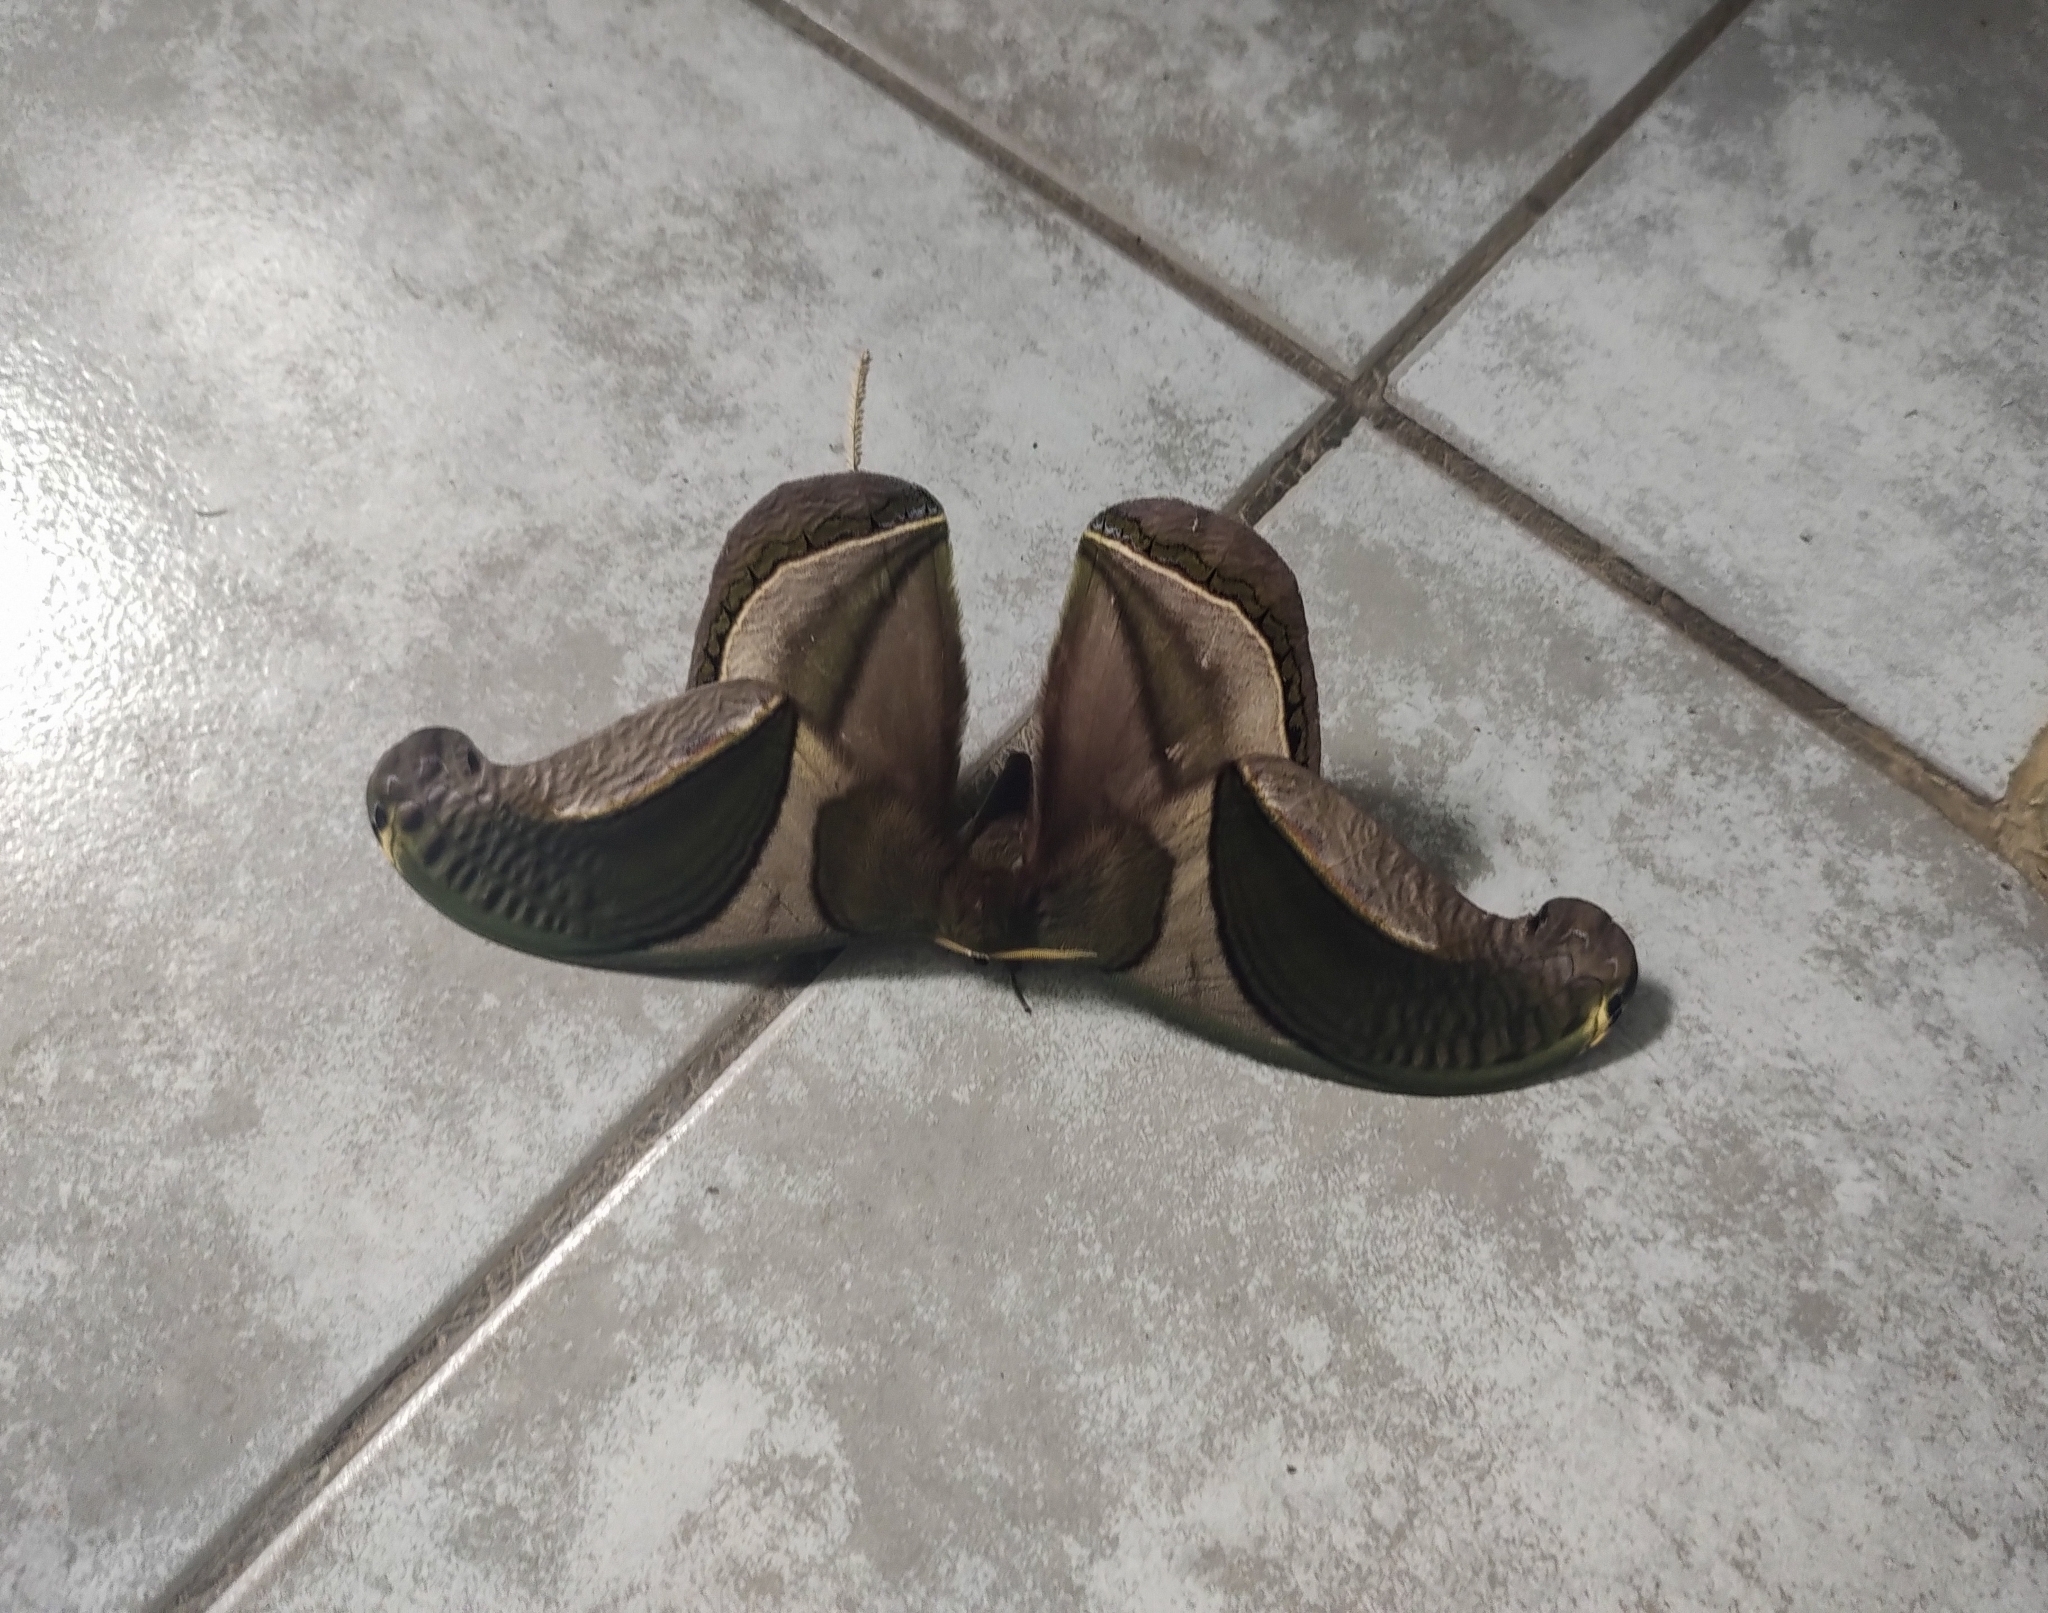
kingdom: Animalia
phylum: Arthropoda
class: Insecta
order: Lepidoptera
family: Saturniidae
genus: Rhescyntis
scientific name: Rhescyntis pseudomartii
